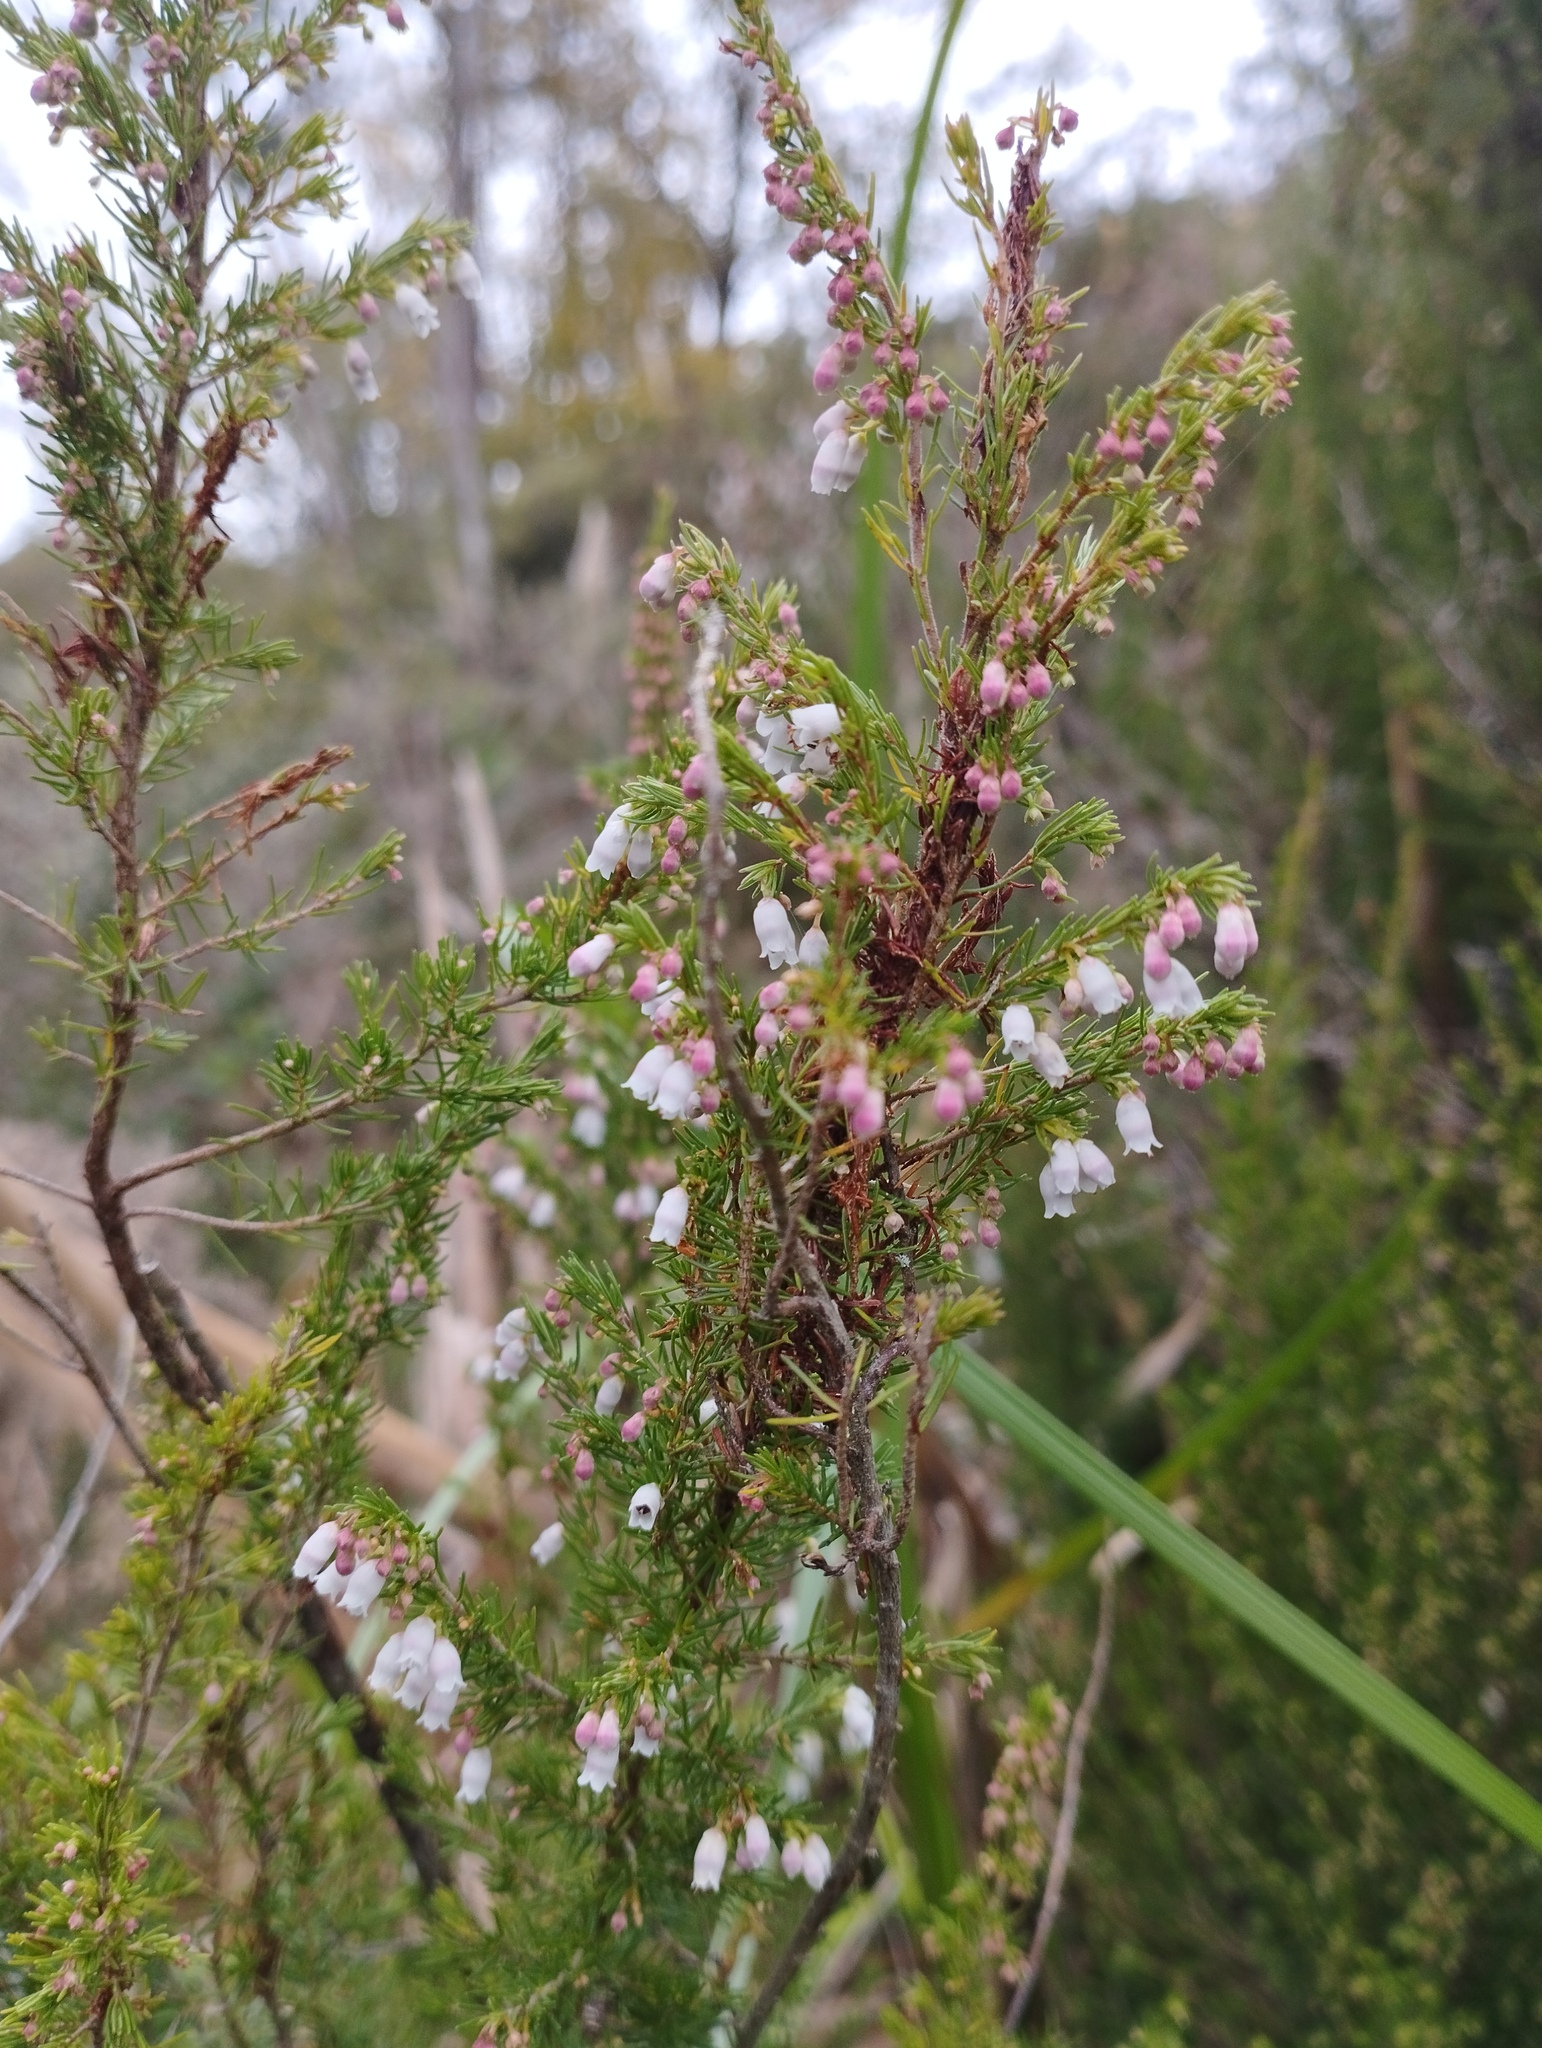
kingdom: Plantae
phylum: Tracheophyta
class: Magnoliopsida
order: Ericales
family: Ericaceae
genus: Erica
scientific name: Erica lusitanica
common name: Spanish heath
